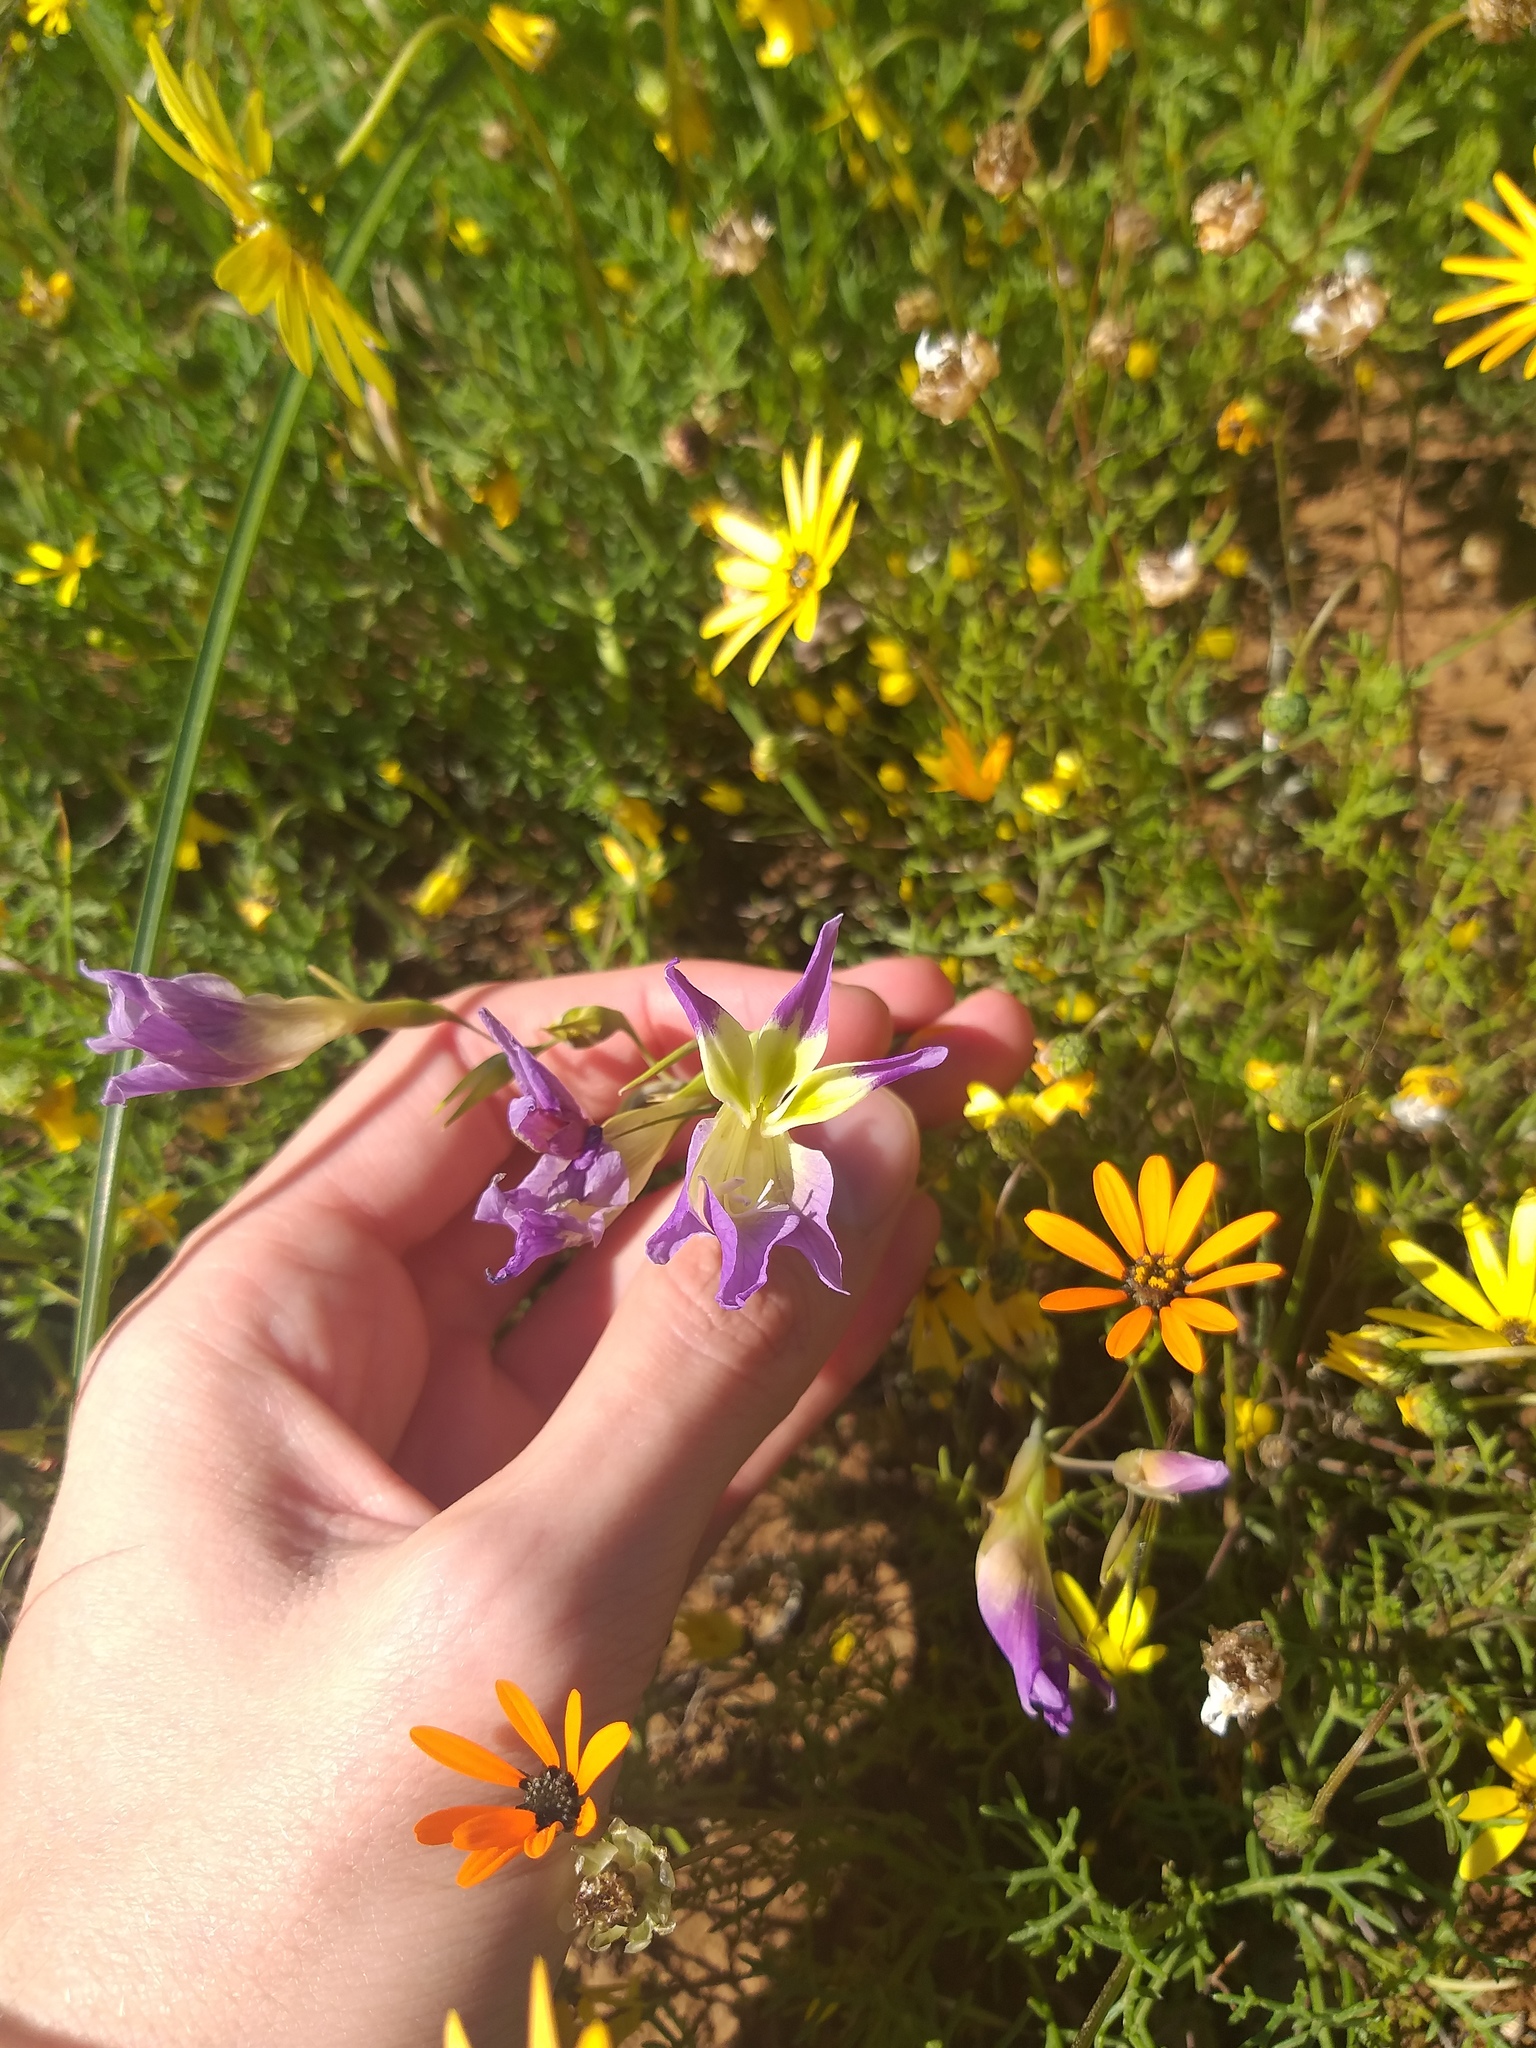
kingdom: Plantae
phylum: Tracheophyta
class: Liliopsida
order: Asparagales
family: Iridaceae
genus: Gladiolus
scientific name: Gladiolus venustus
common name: Purple kalkoentjie
